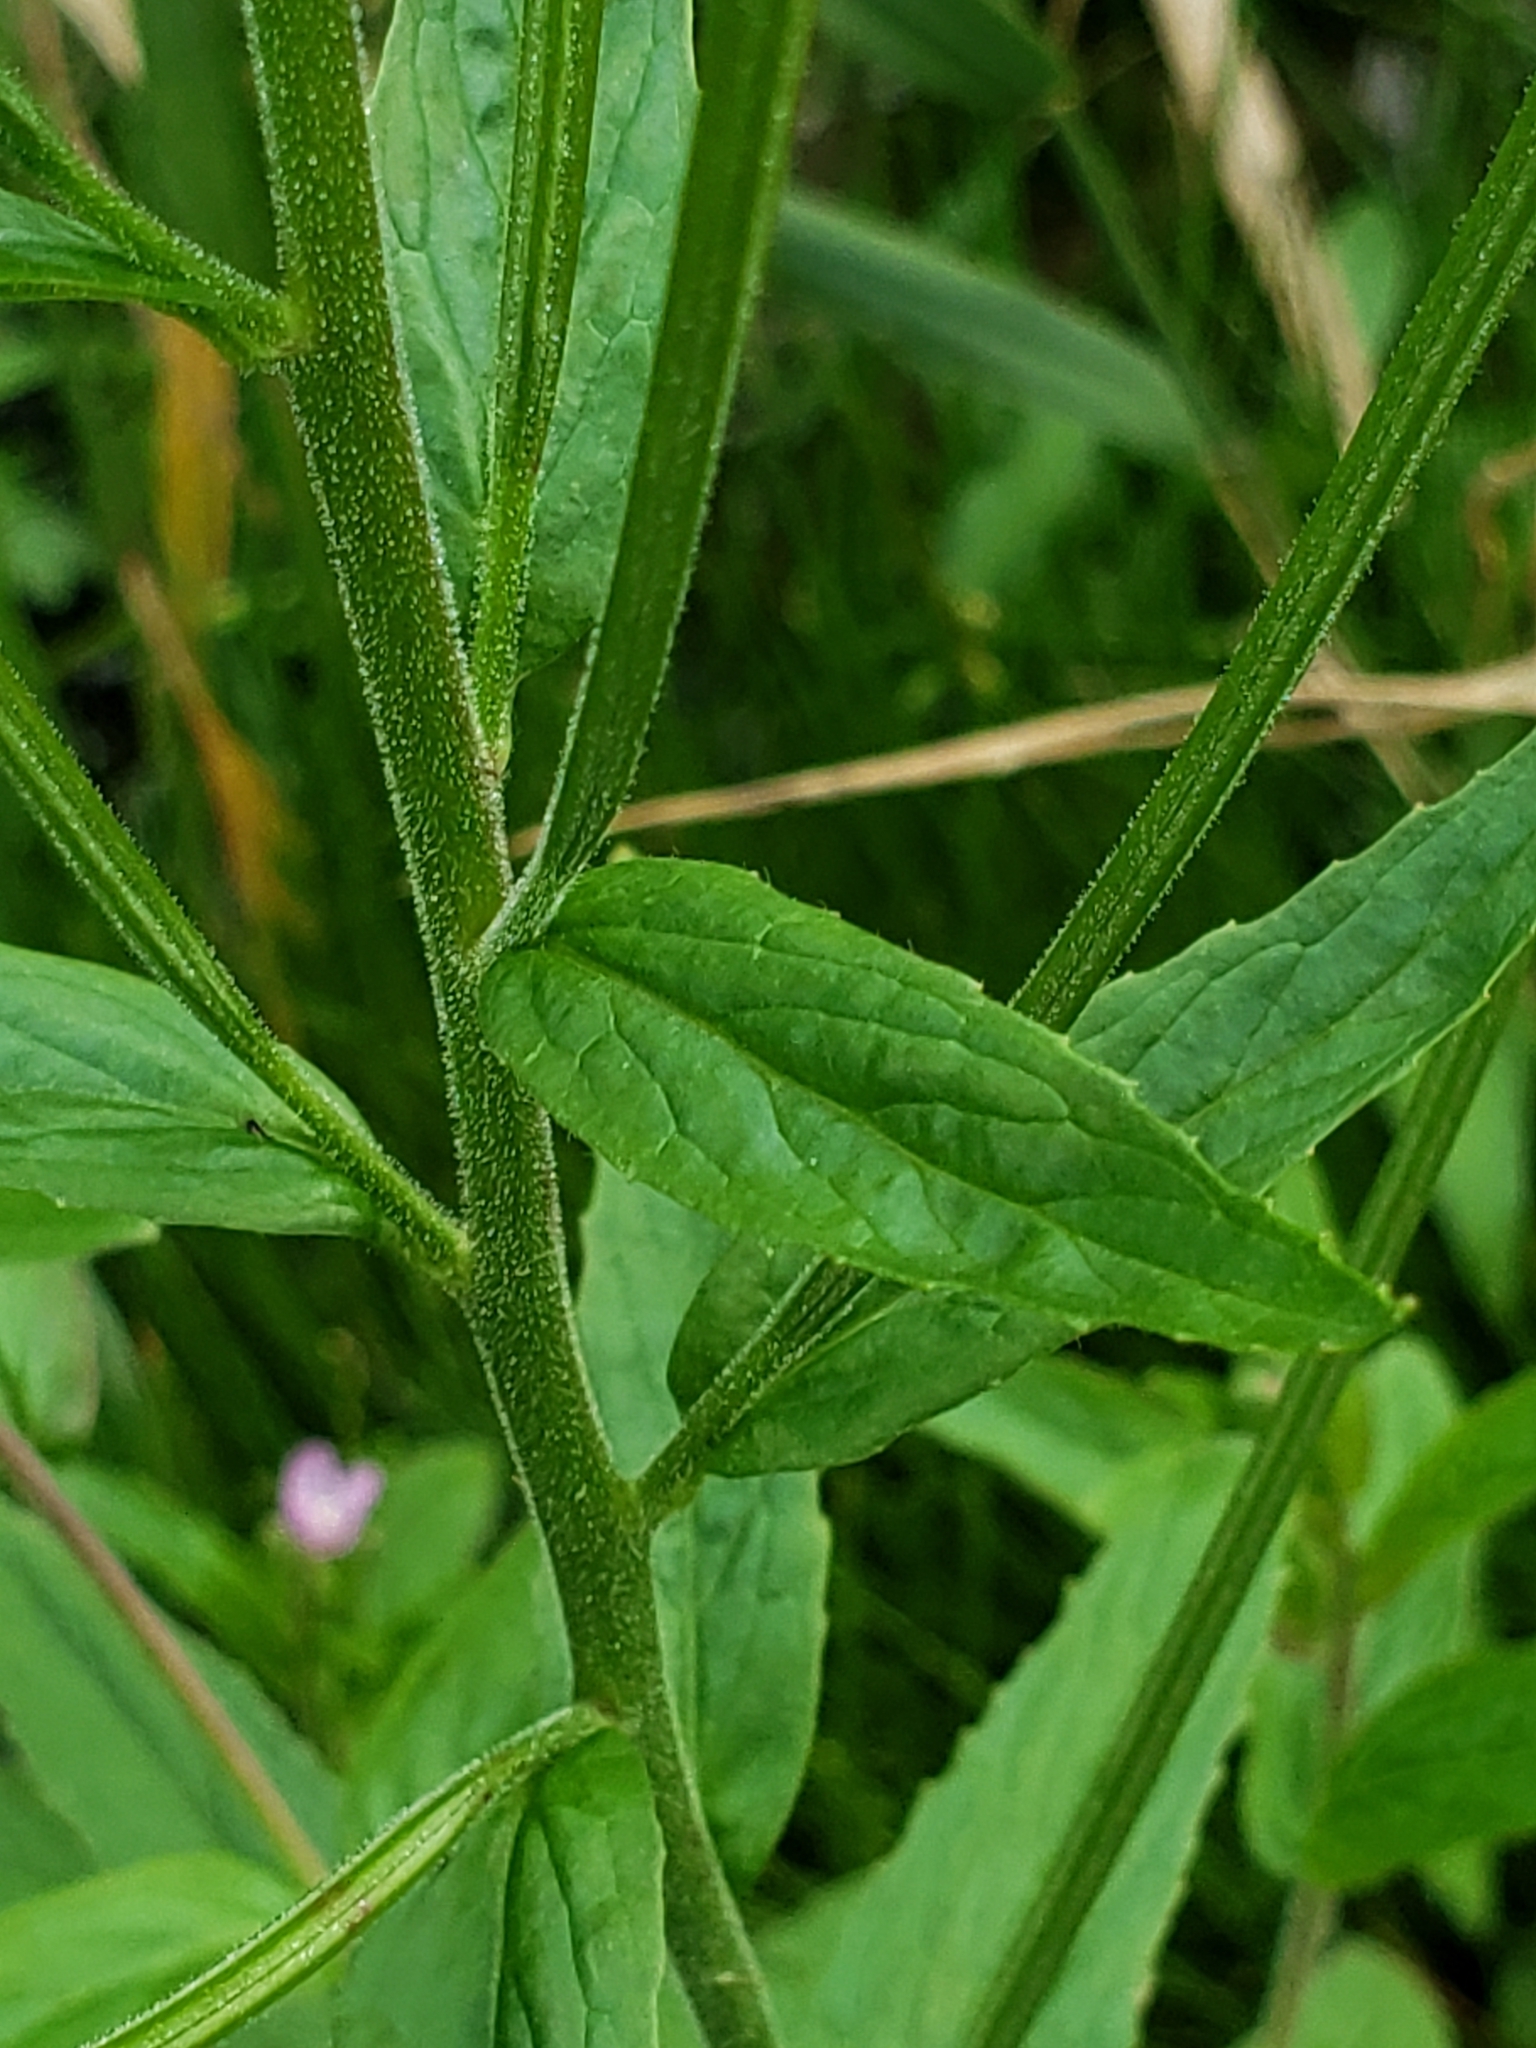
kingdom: Plantae
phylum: Tracheophyta
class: Magnoliopsida
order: Myrtales
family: Onagraceae
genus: Epilobium
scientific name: Epilobium hirsutum
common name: Great willowherb
